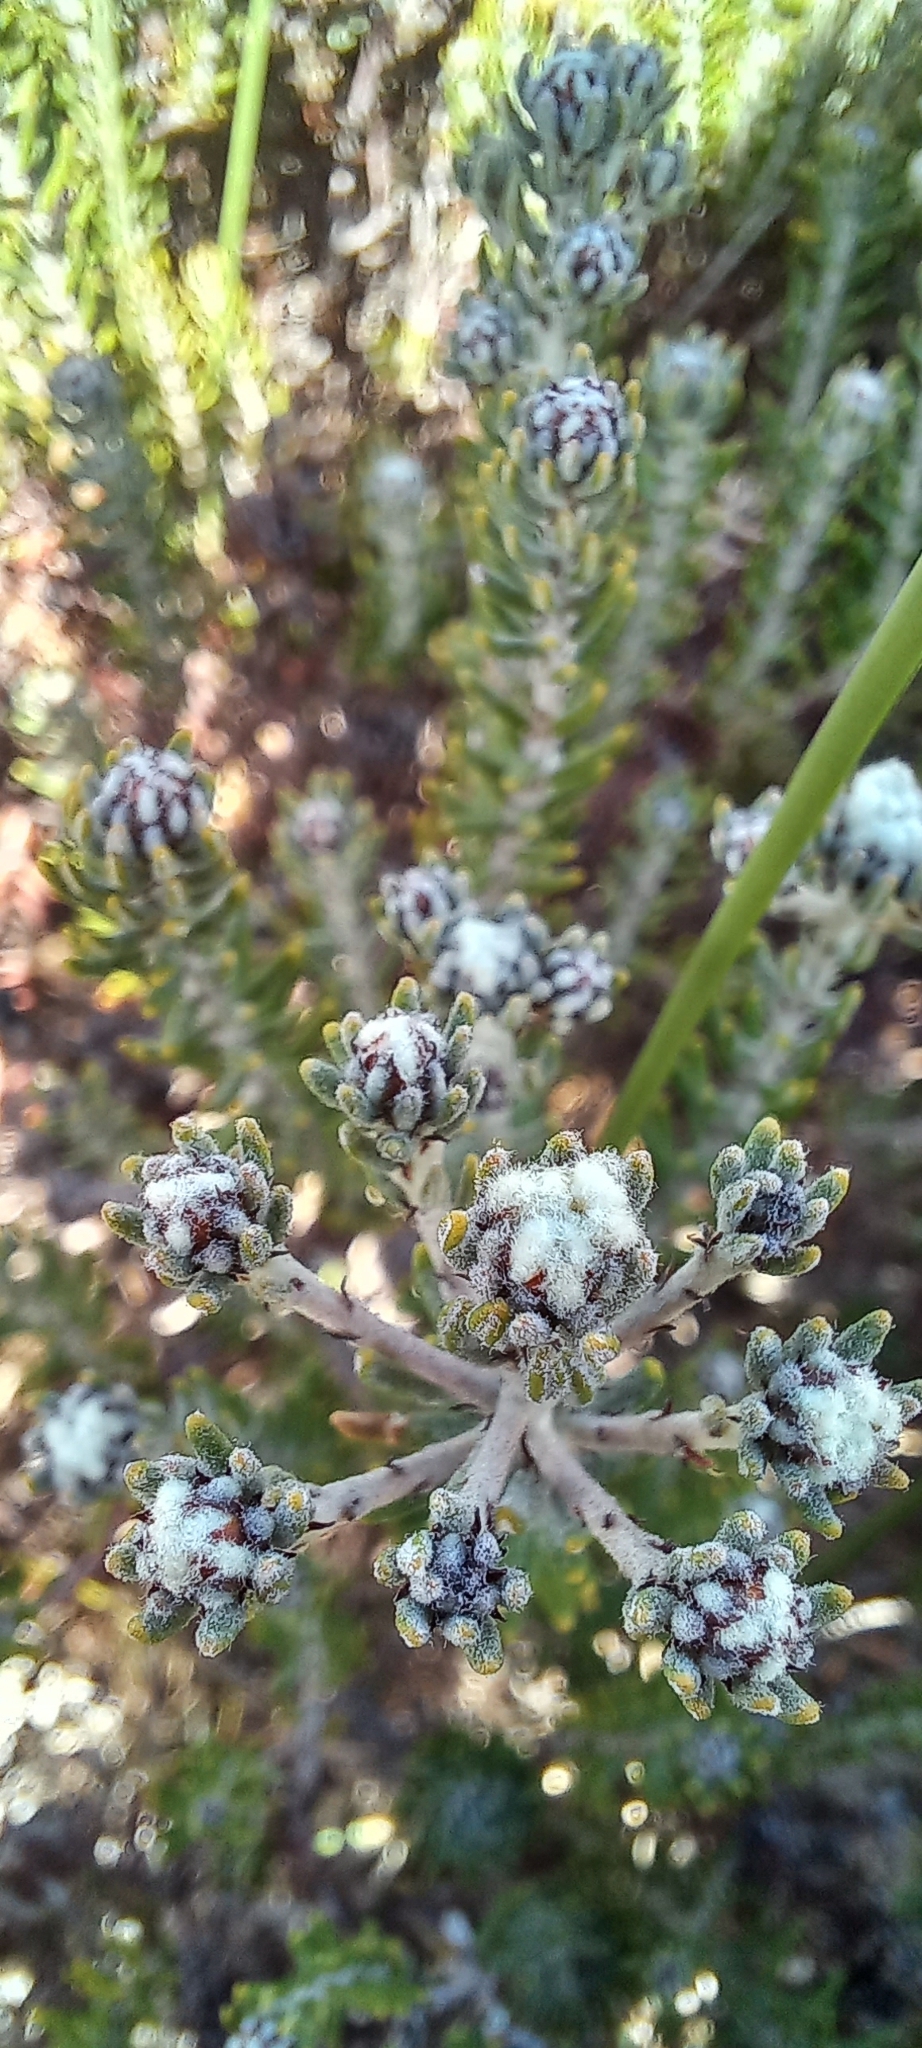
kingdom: Plantae
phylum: Tracheophyta
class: Magnoliopsida
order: Rosales
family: Rhamnaceae
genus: Phylica
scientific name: Phylica ericoides
